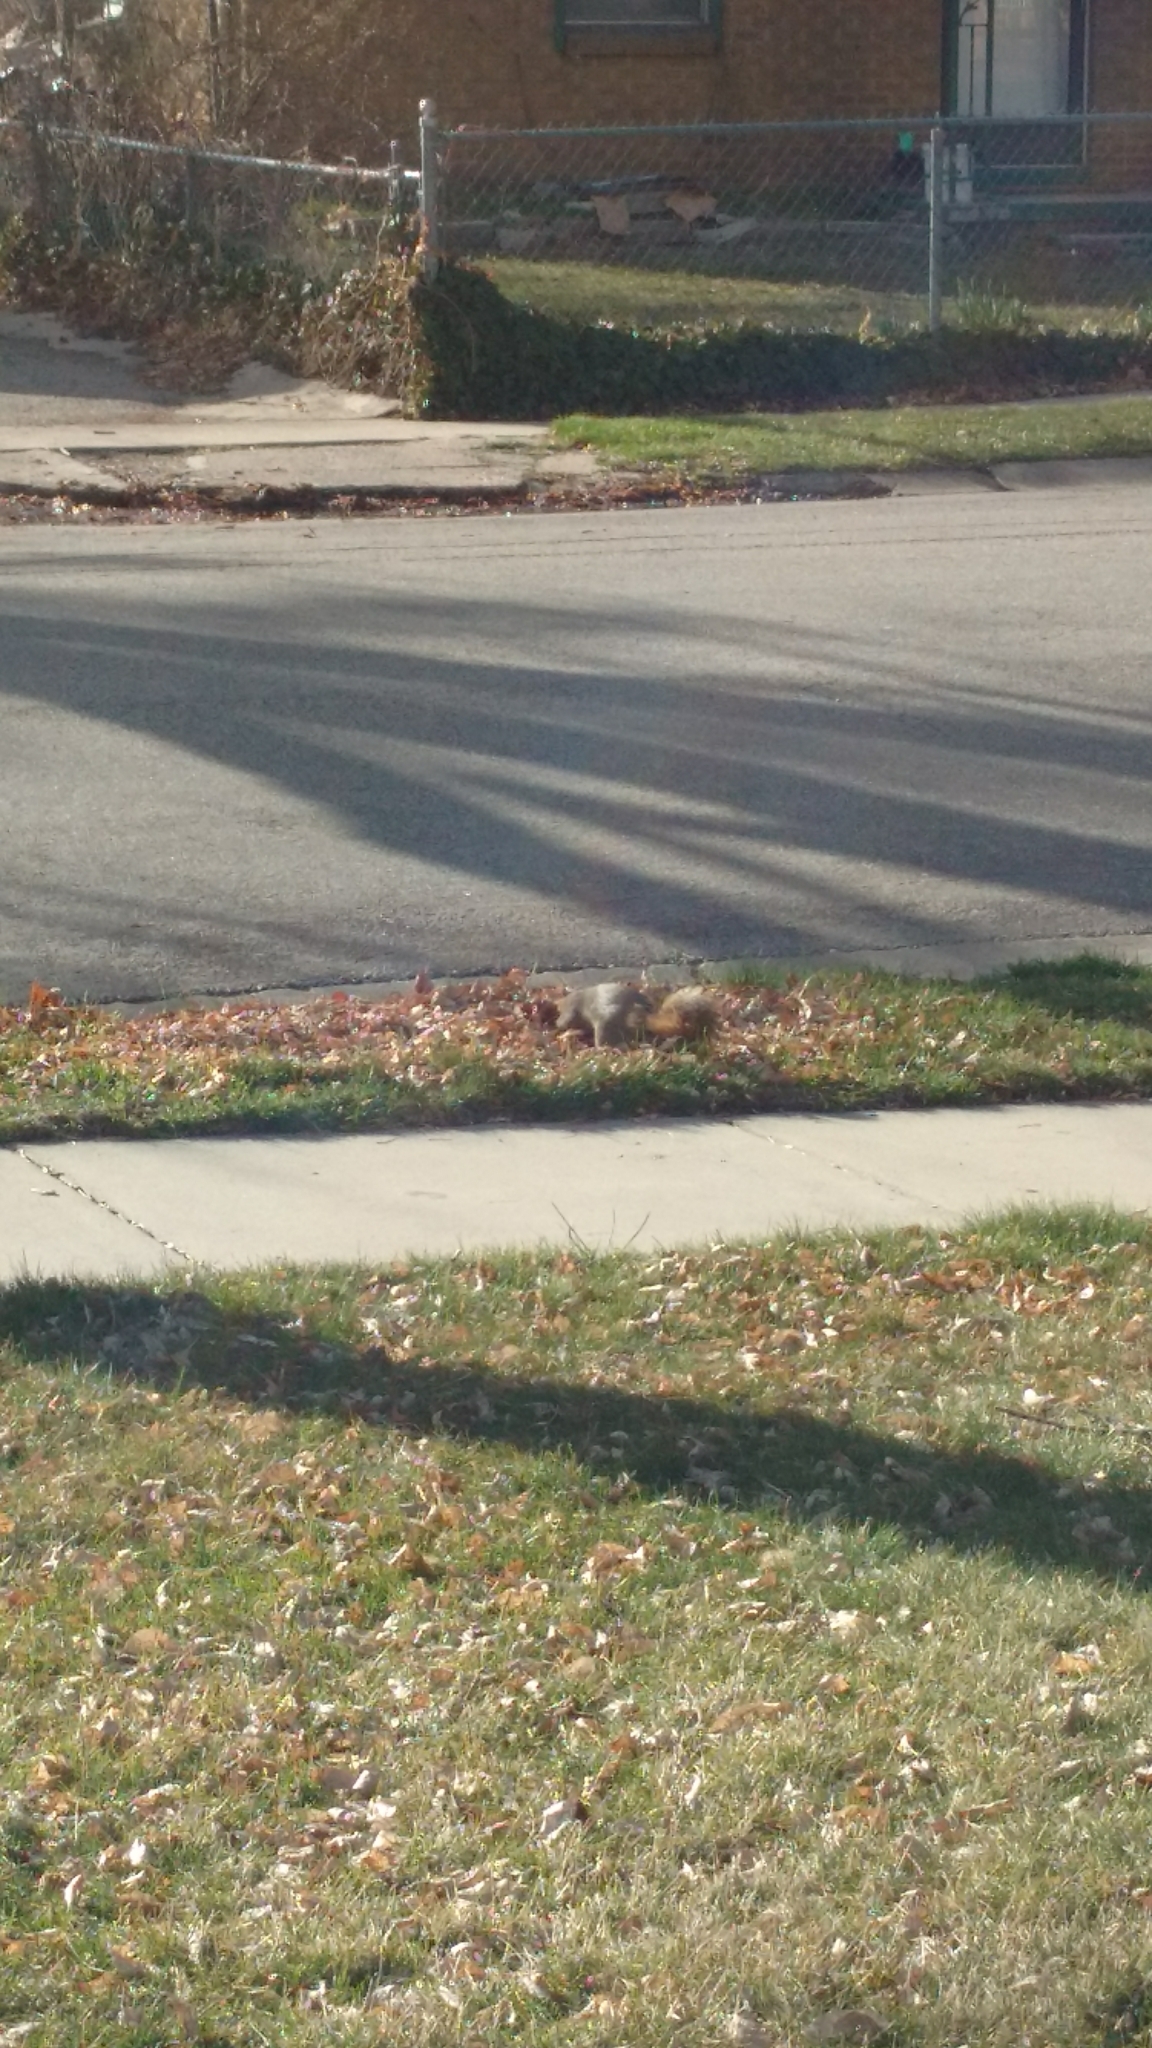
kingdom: Animalia
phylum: Chordata
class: Mammalia
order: Rodentia
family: Sciuridae
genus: Sciurus
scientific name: Sciurus niger
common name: Fox squirrel
